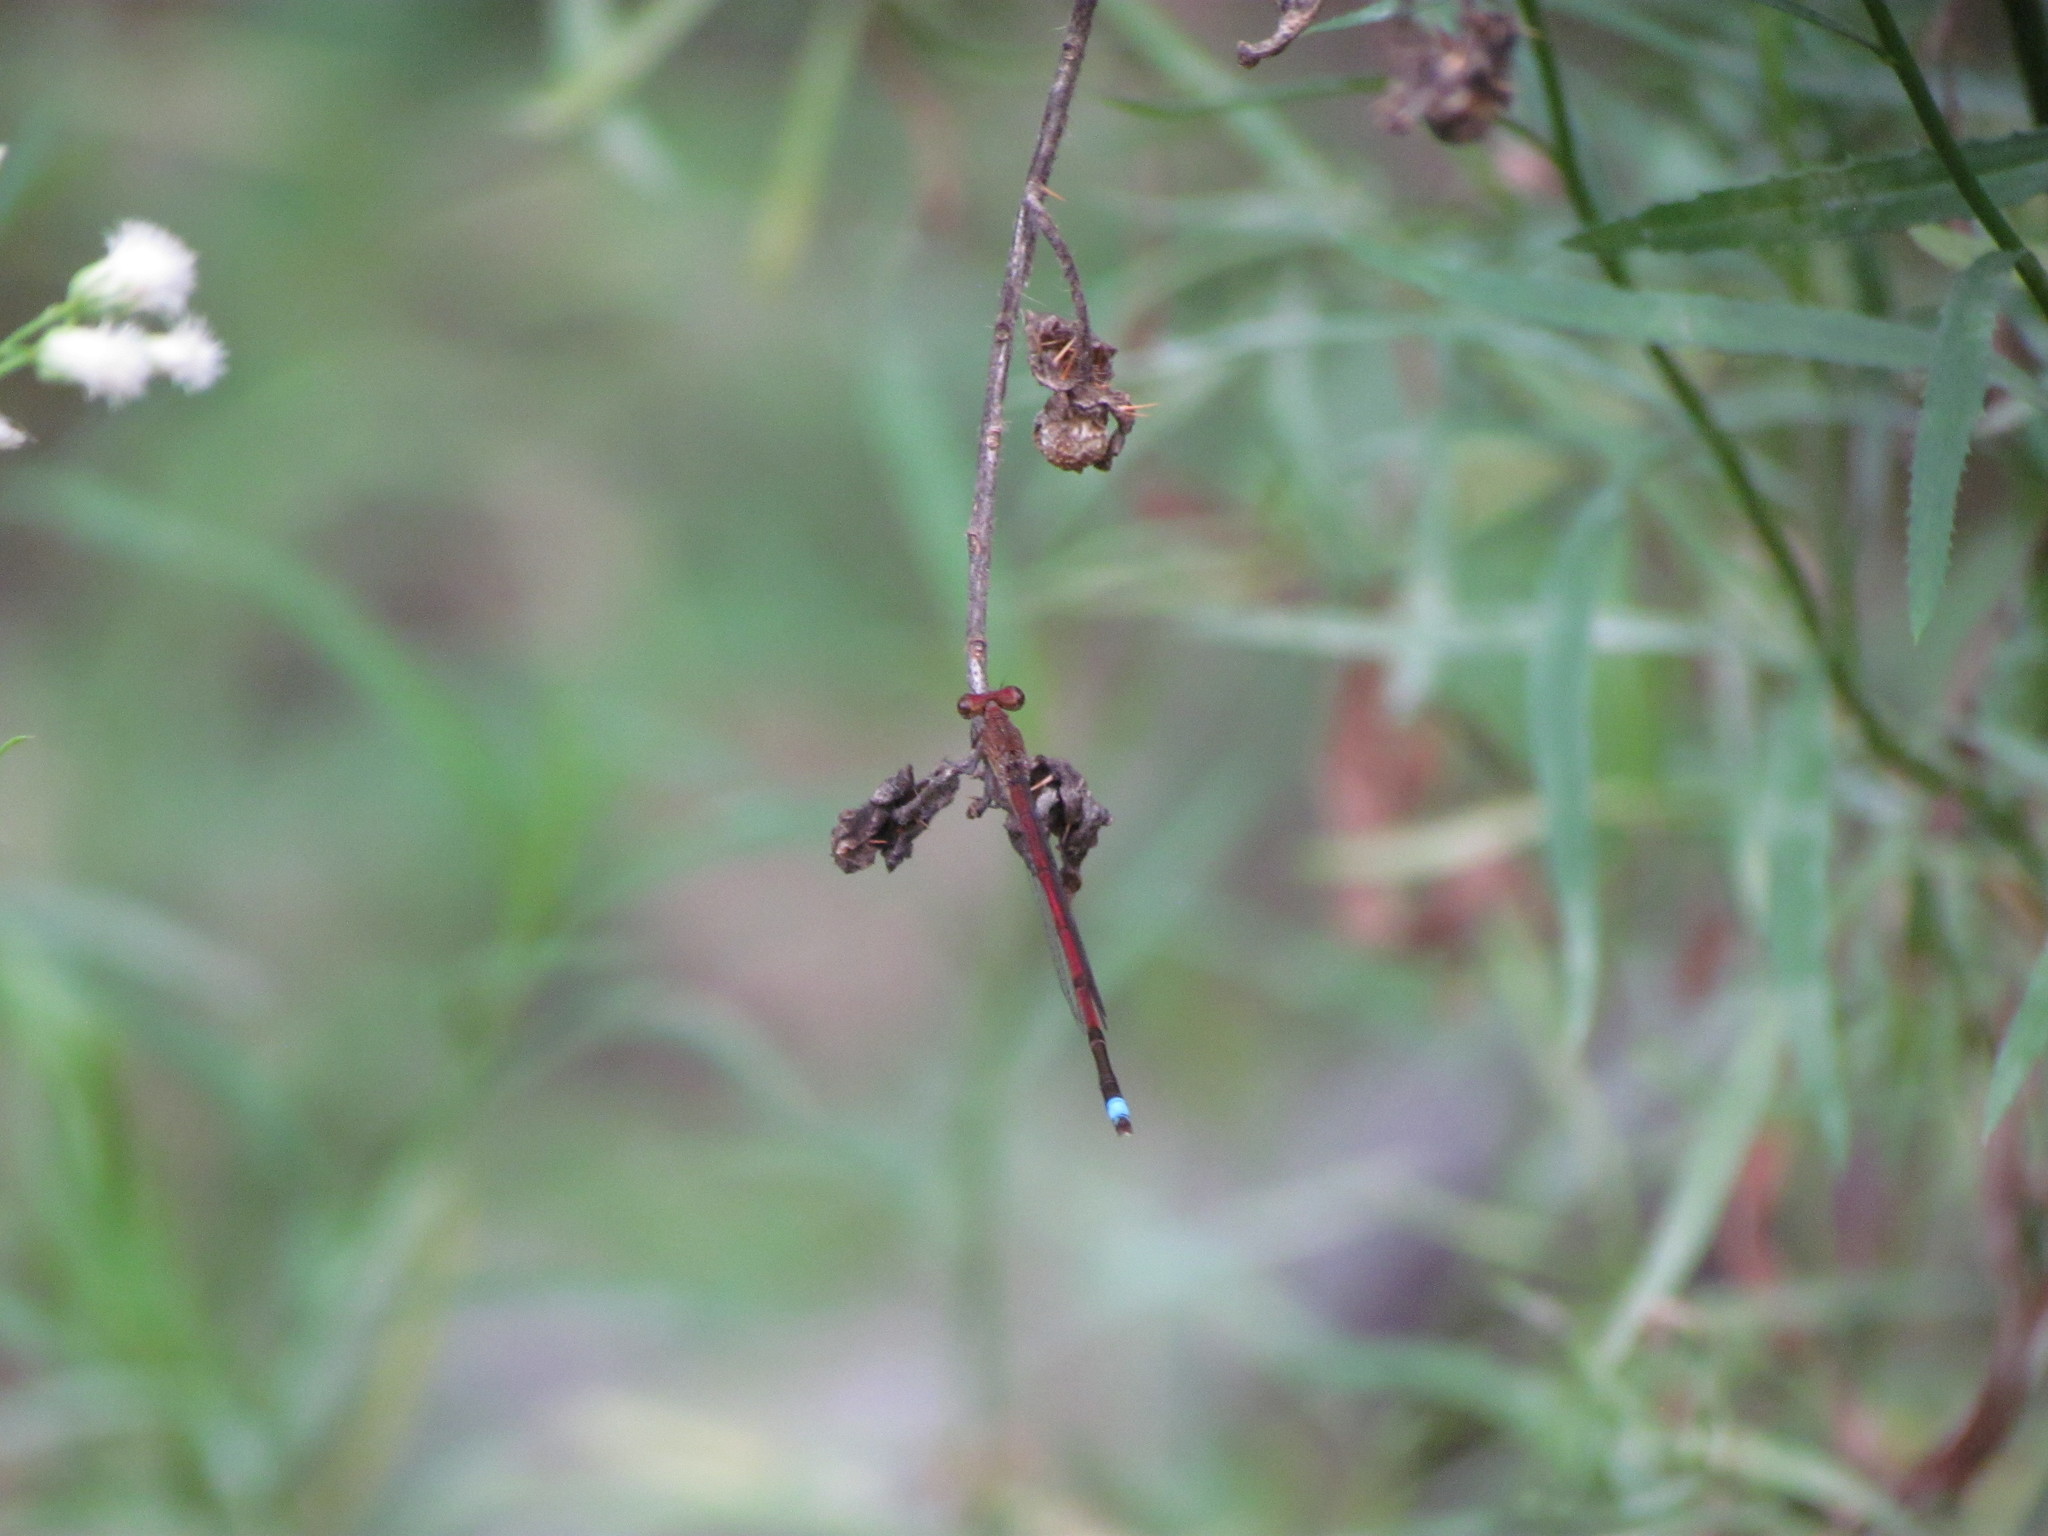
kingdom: Animalia
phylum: Arthropoda
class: Insecta
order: Odonata
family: Coenagrionidae
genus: Oxyagrion
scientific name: Oxyagrion terminale
